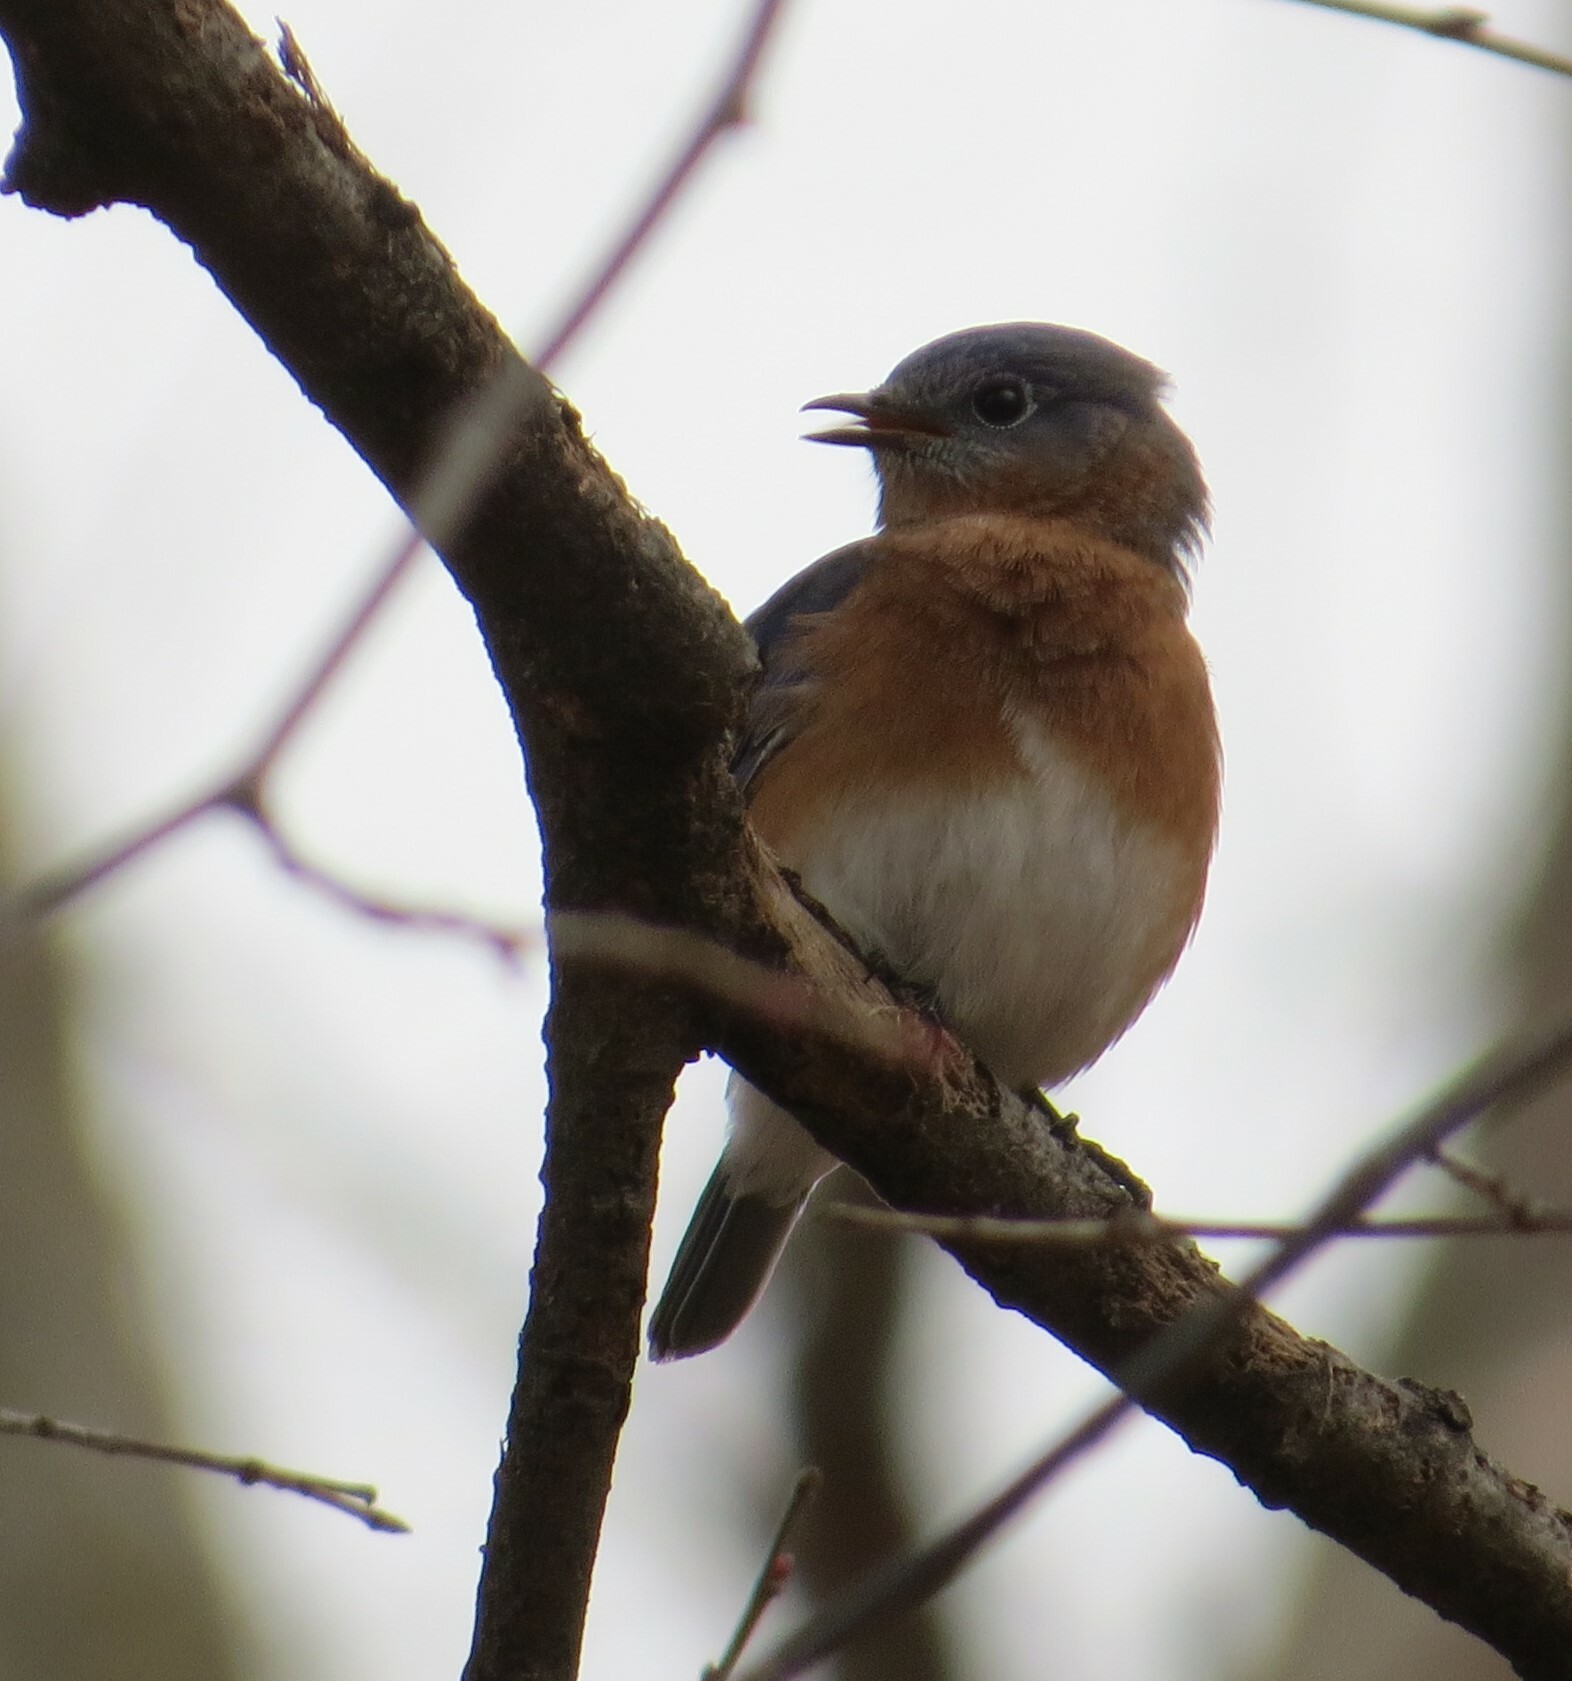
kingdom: Animalia
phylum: Chordata
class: Aves
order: Passeriformes
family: Turdidae
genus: Sialia
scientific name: Sialia sialis
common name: Eastern bluebird
